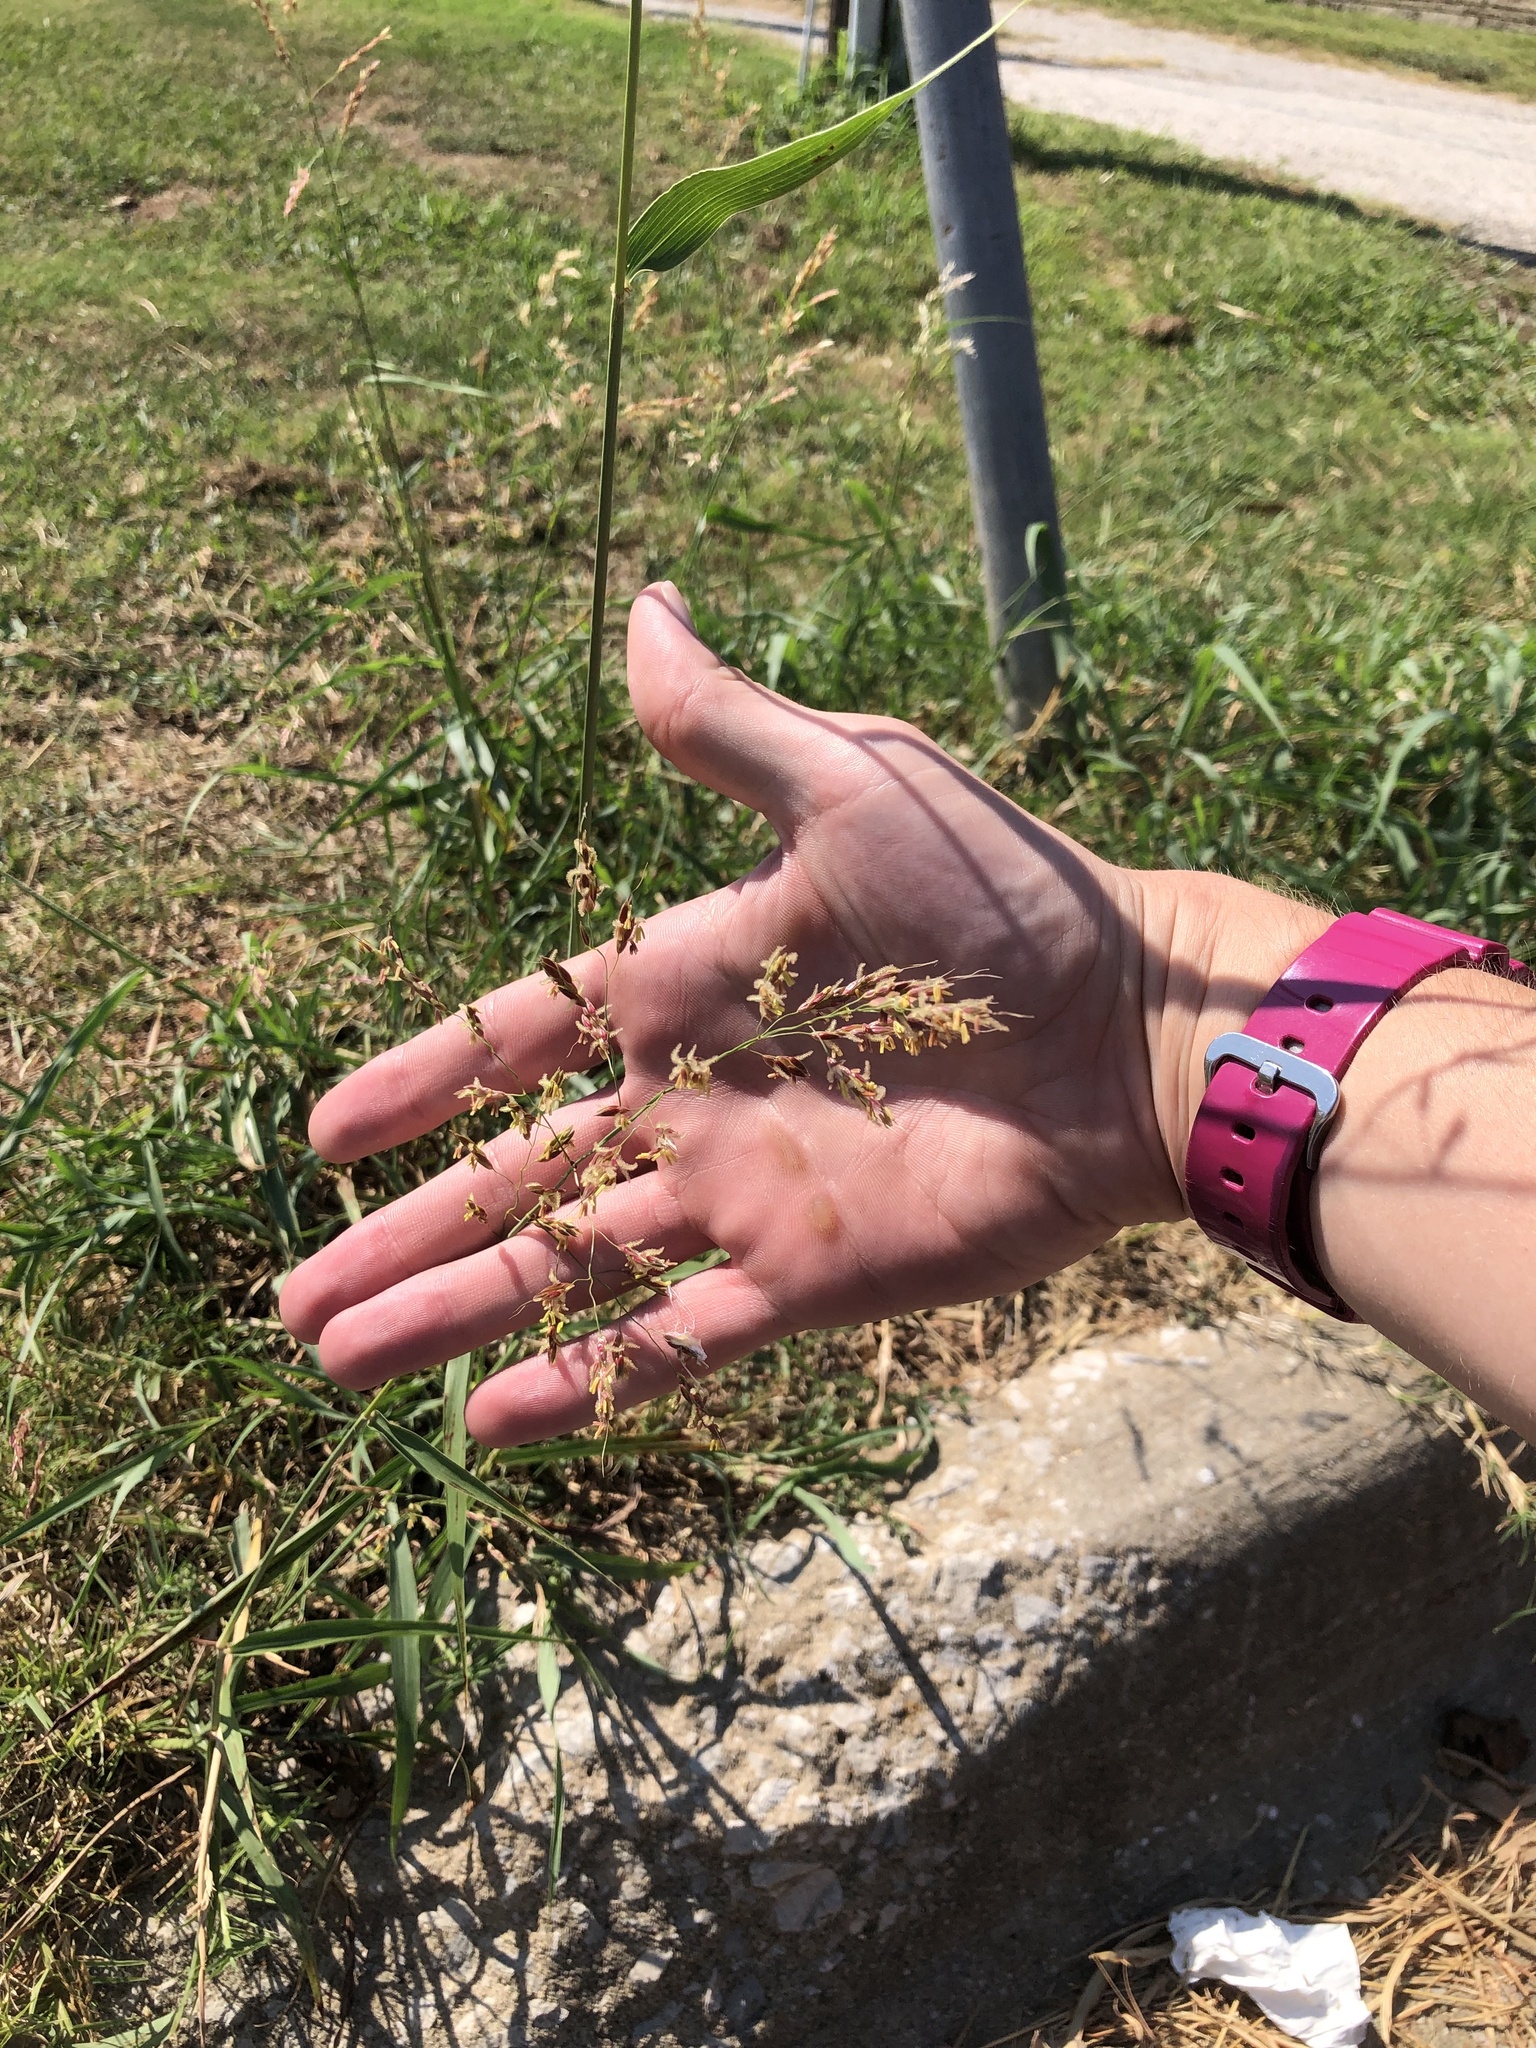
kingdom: Plantae
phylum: Tracheophyta
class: Liliopsida
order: Poales
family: Poaceae
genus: Sorghum
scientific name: Sorghum halepense
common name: Johnson-grass
